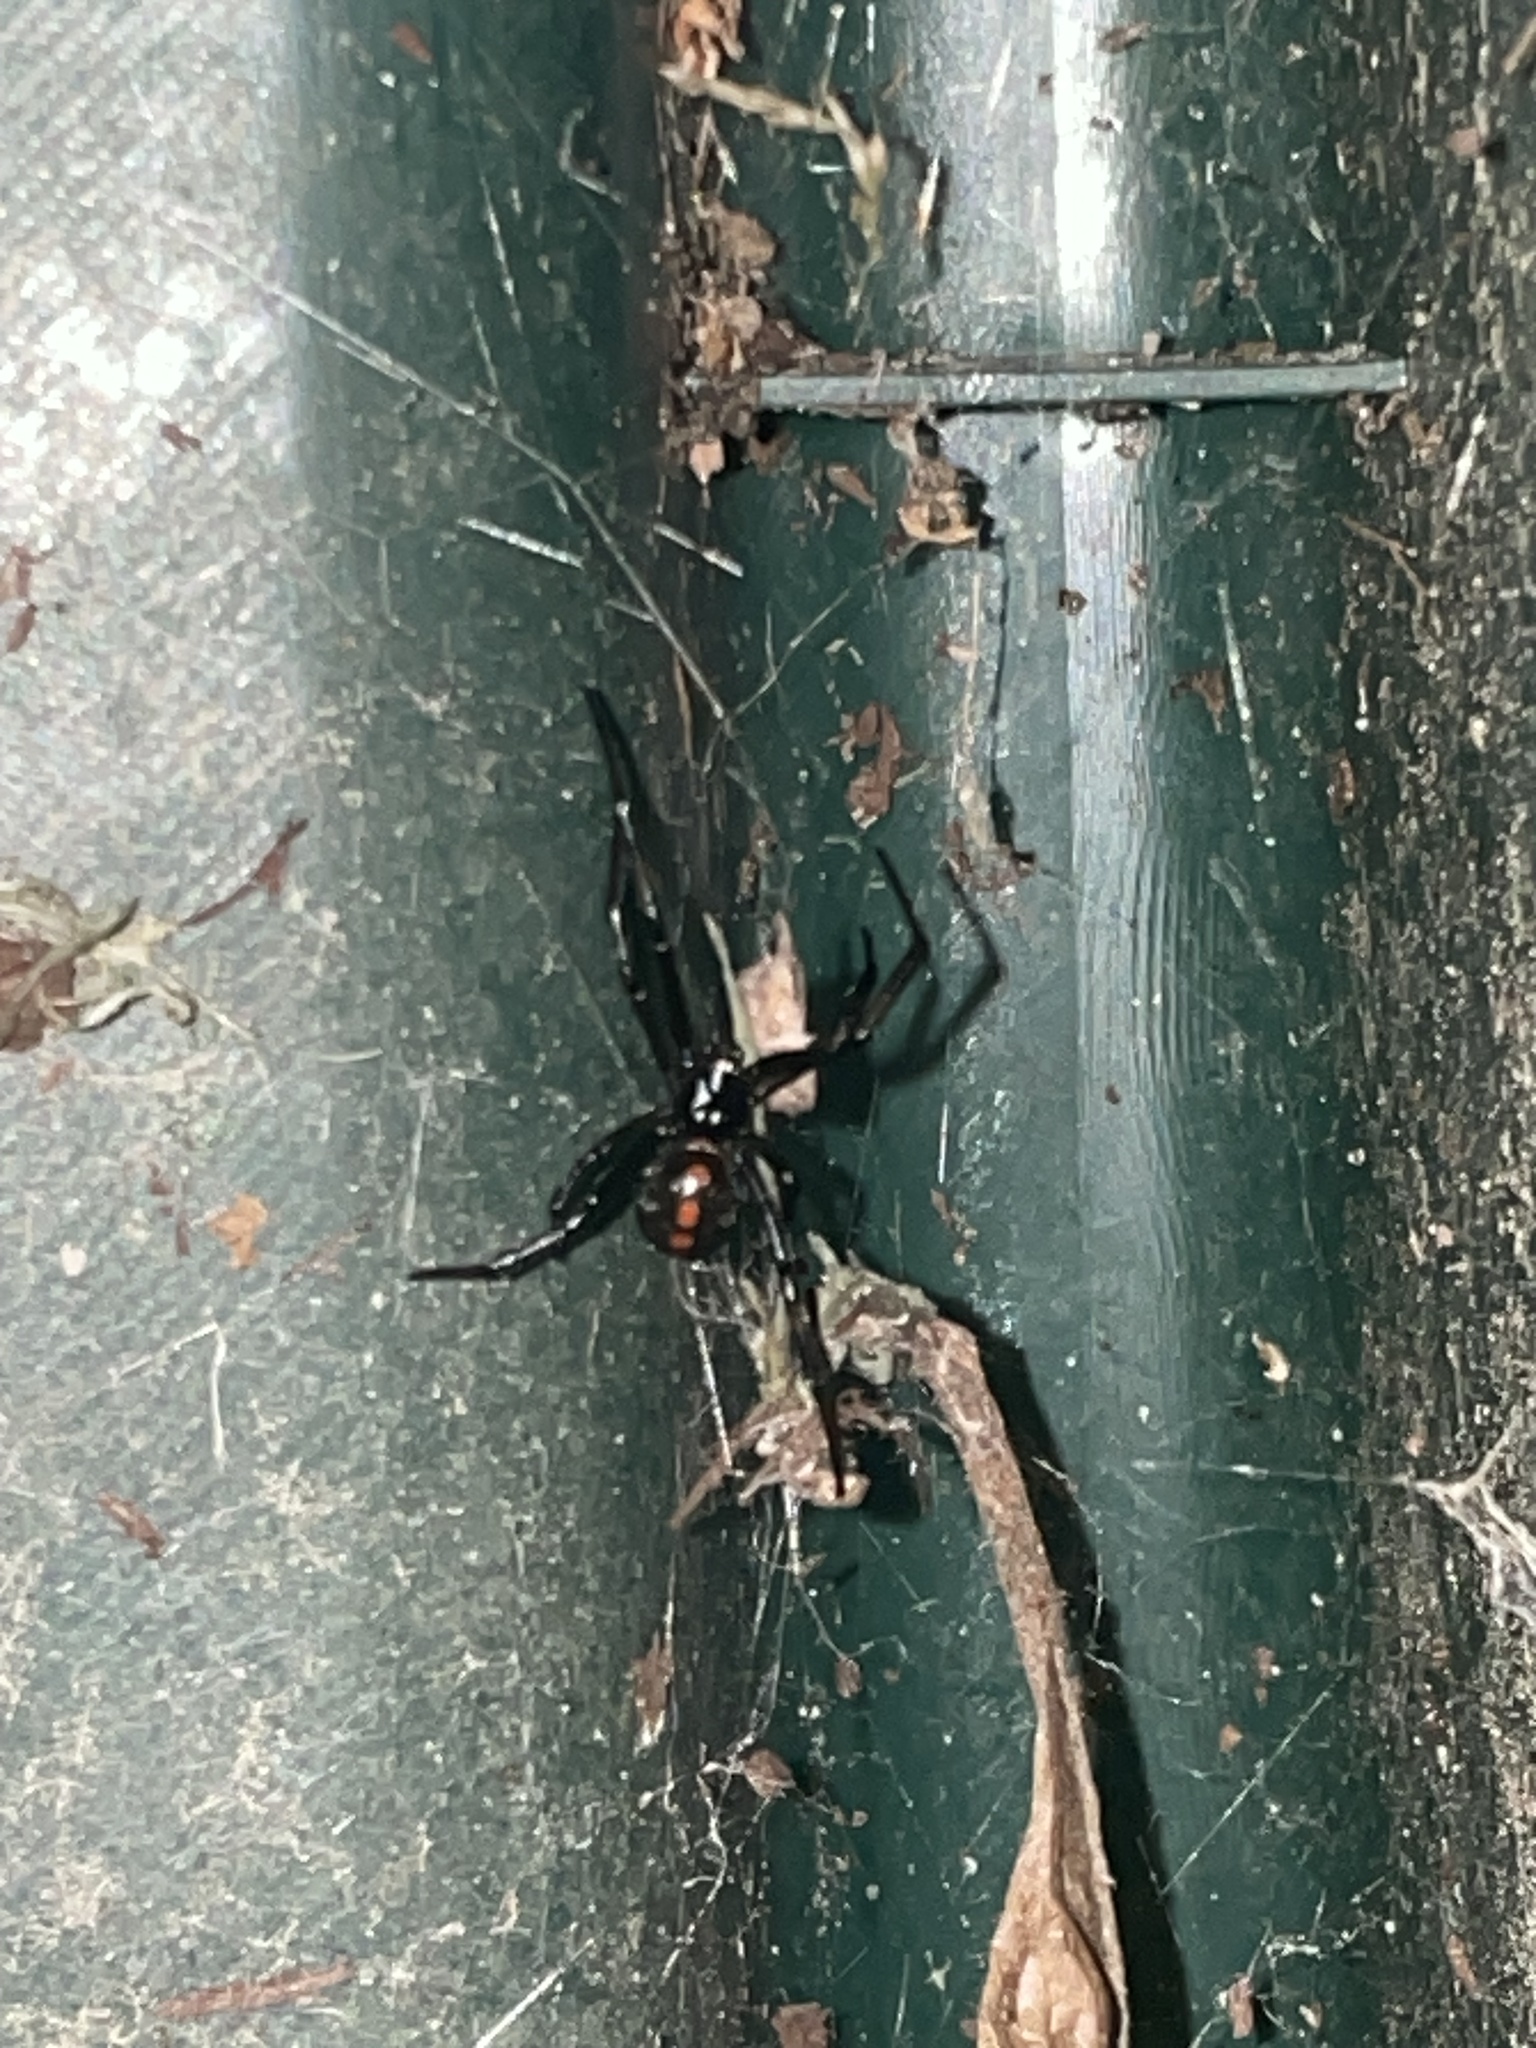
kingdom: Animalia
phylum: Arthropoda
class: Arachnida
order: Araneae
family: Theridiidae
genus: Latrodectus
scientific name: Latrodectus mactans
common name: Cobweb spiders
